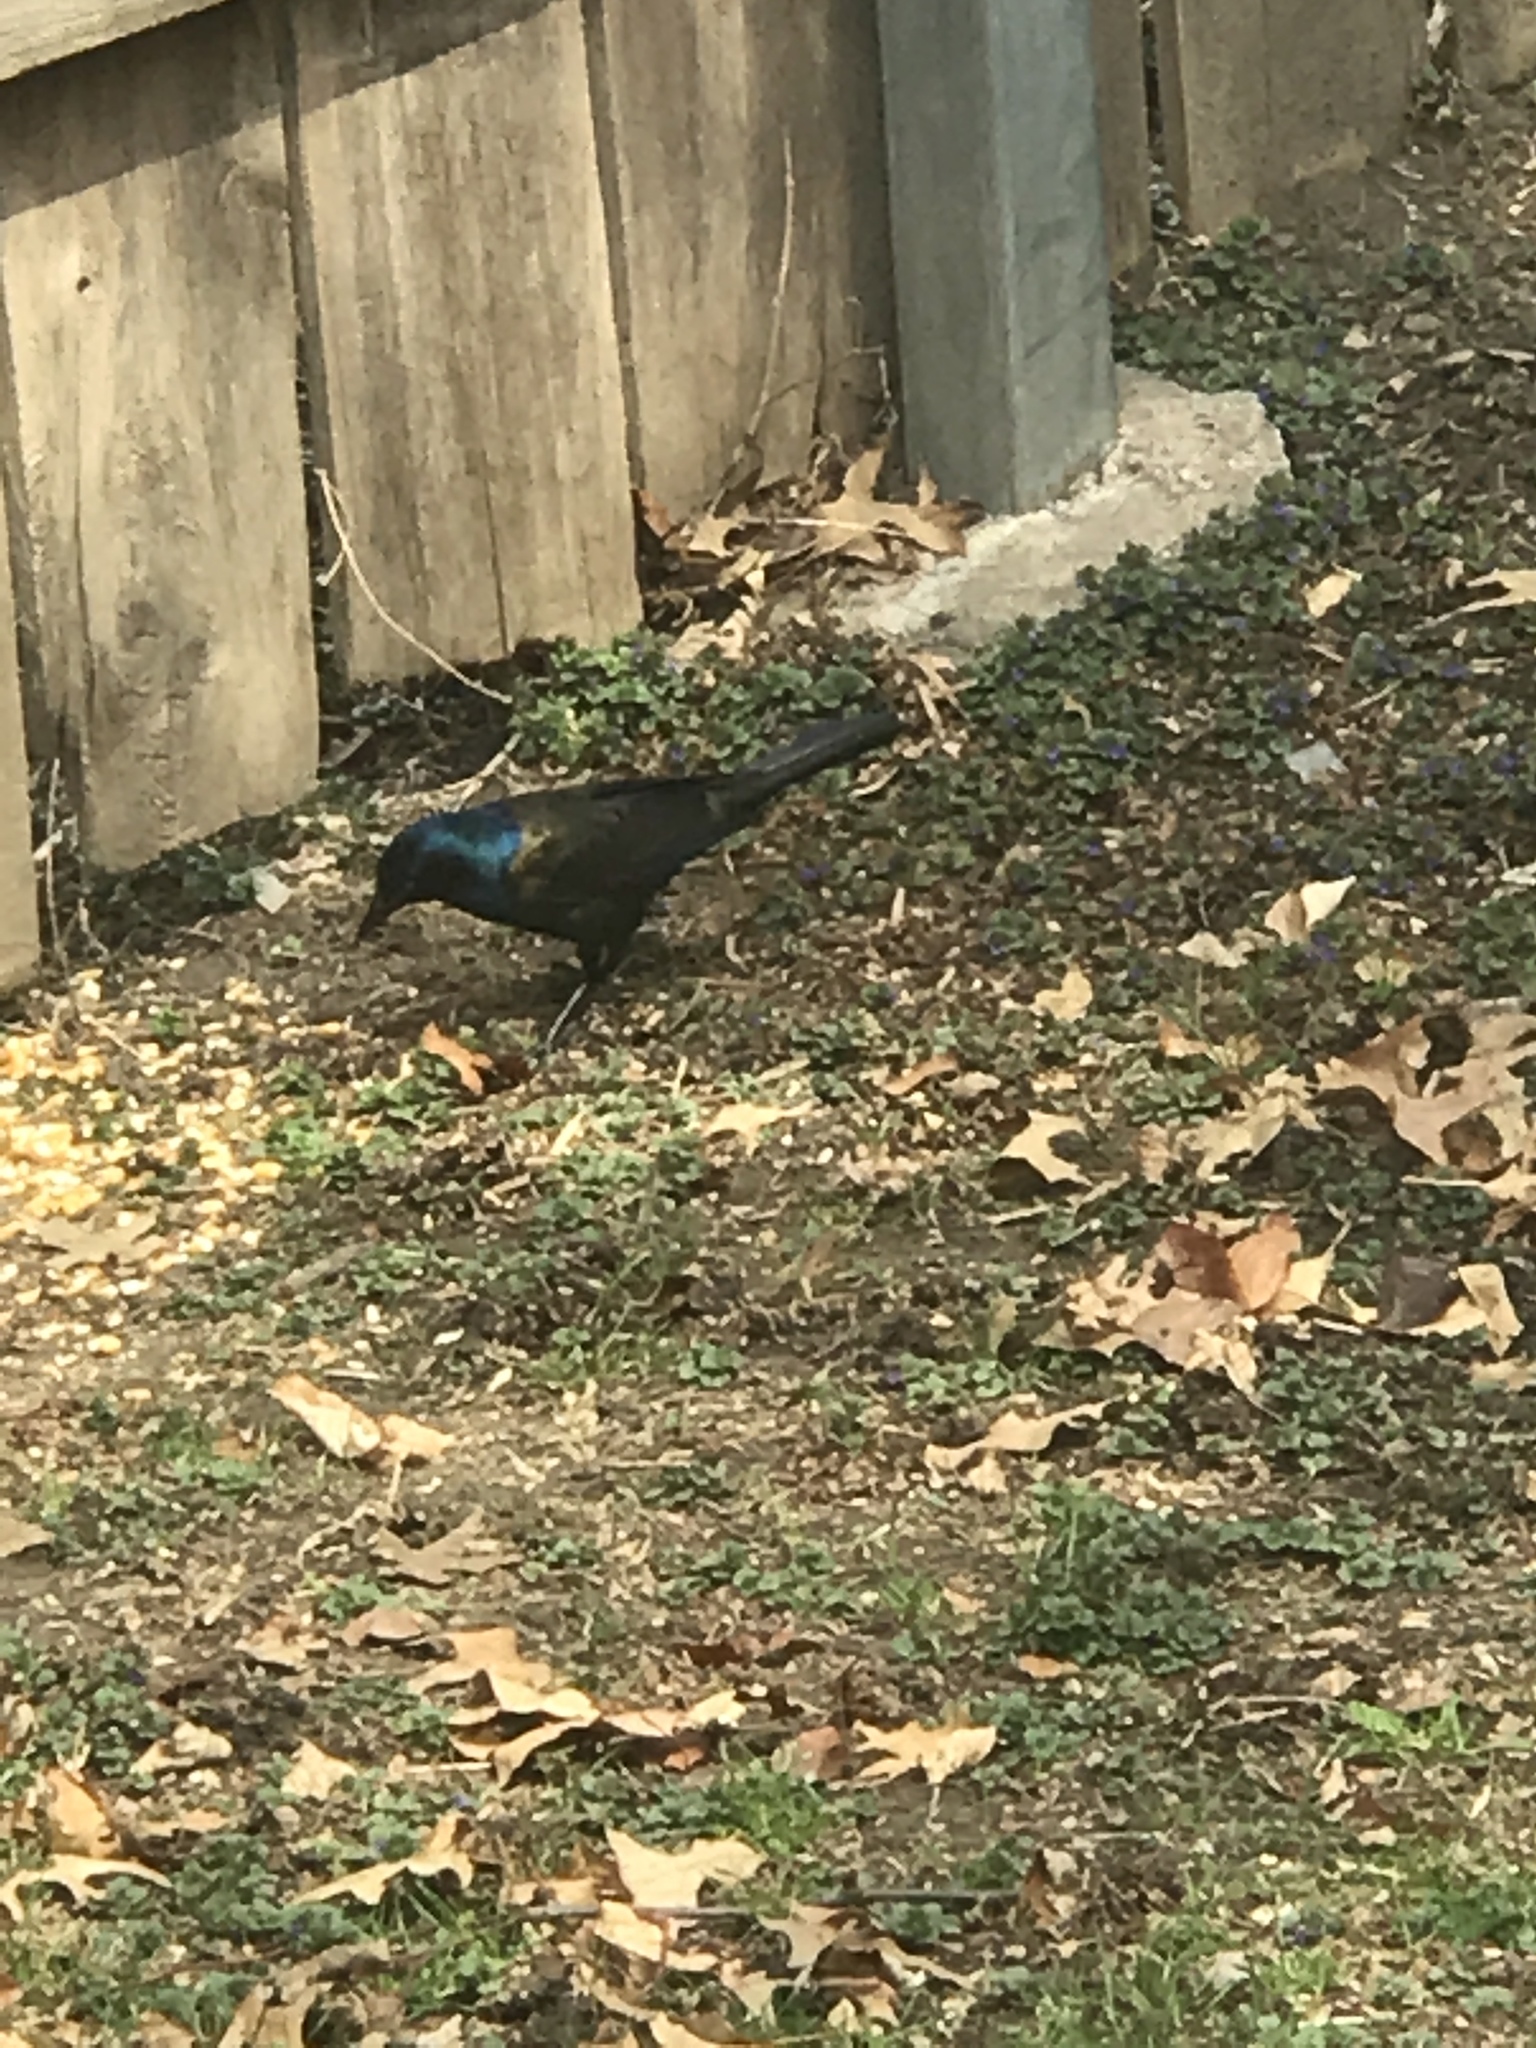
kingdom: Animalia
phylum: Chordata
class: Aves
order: Passeriformes
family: Icteridae
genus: Quiscalus
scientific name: Quiscalus quiscula
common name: Common grackle
